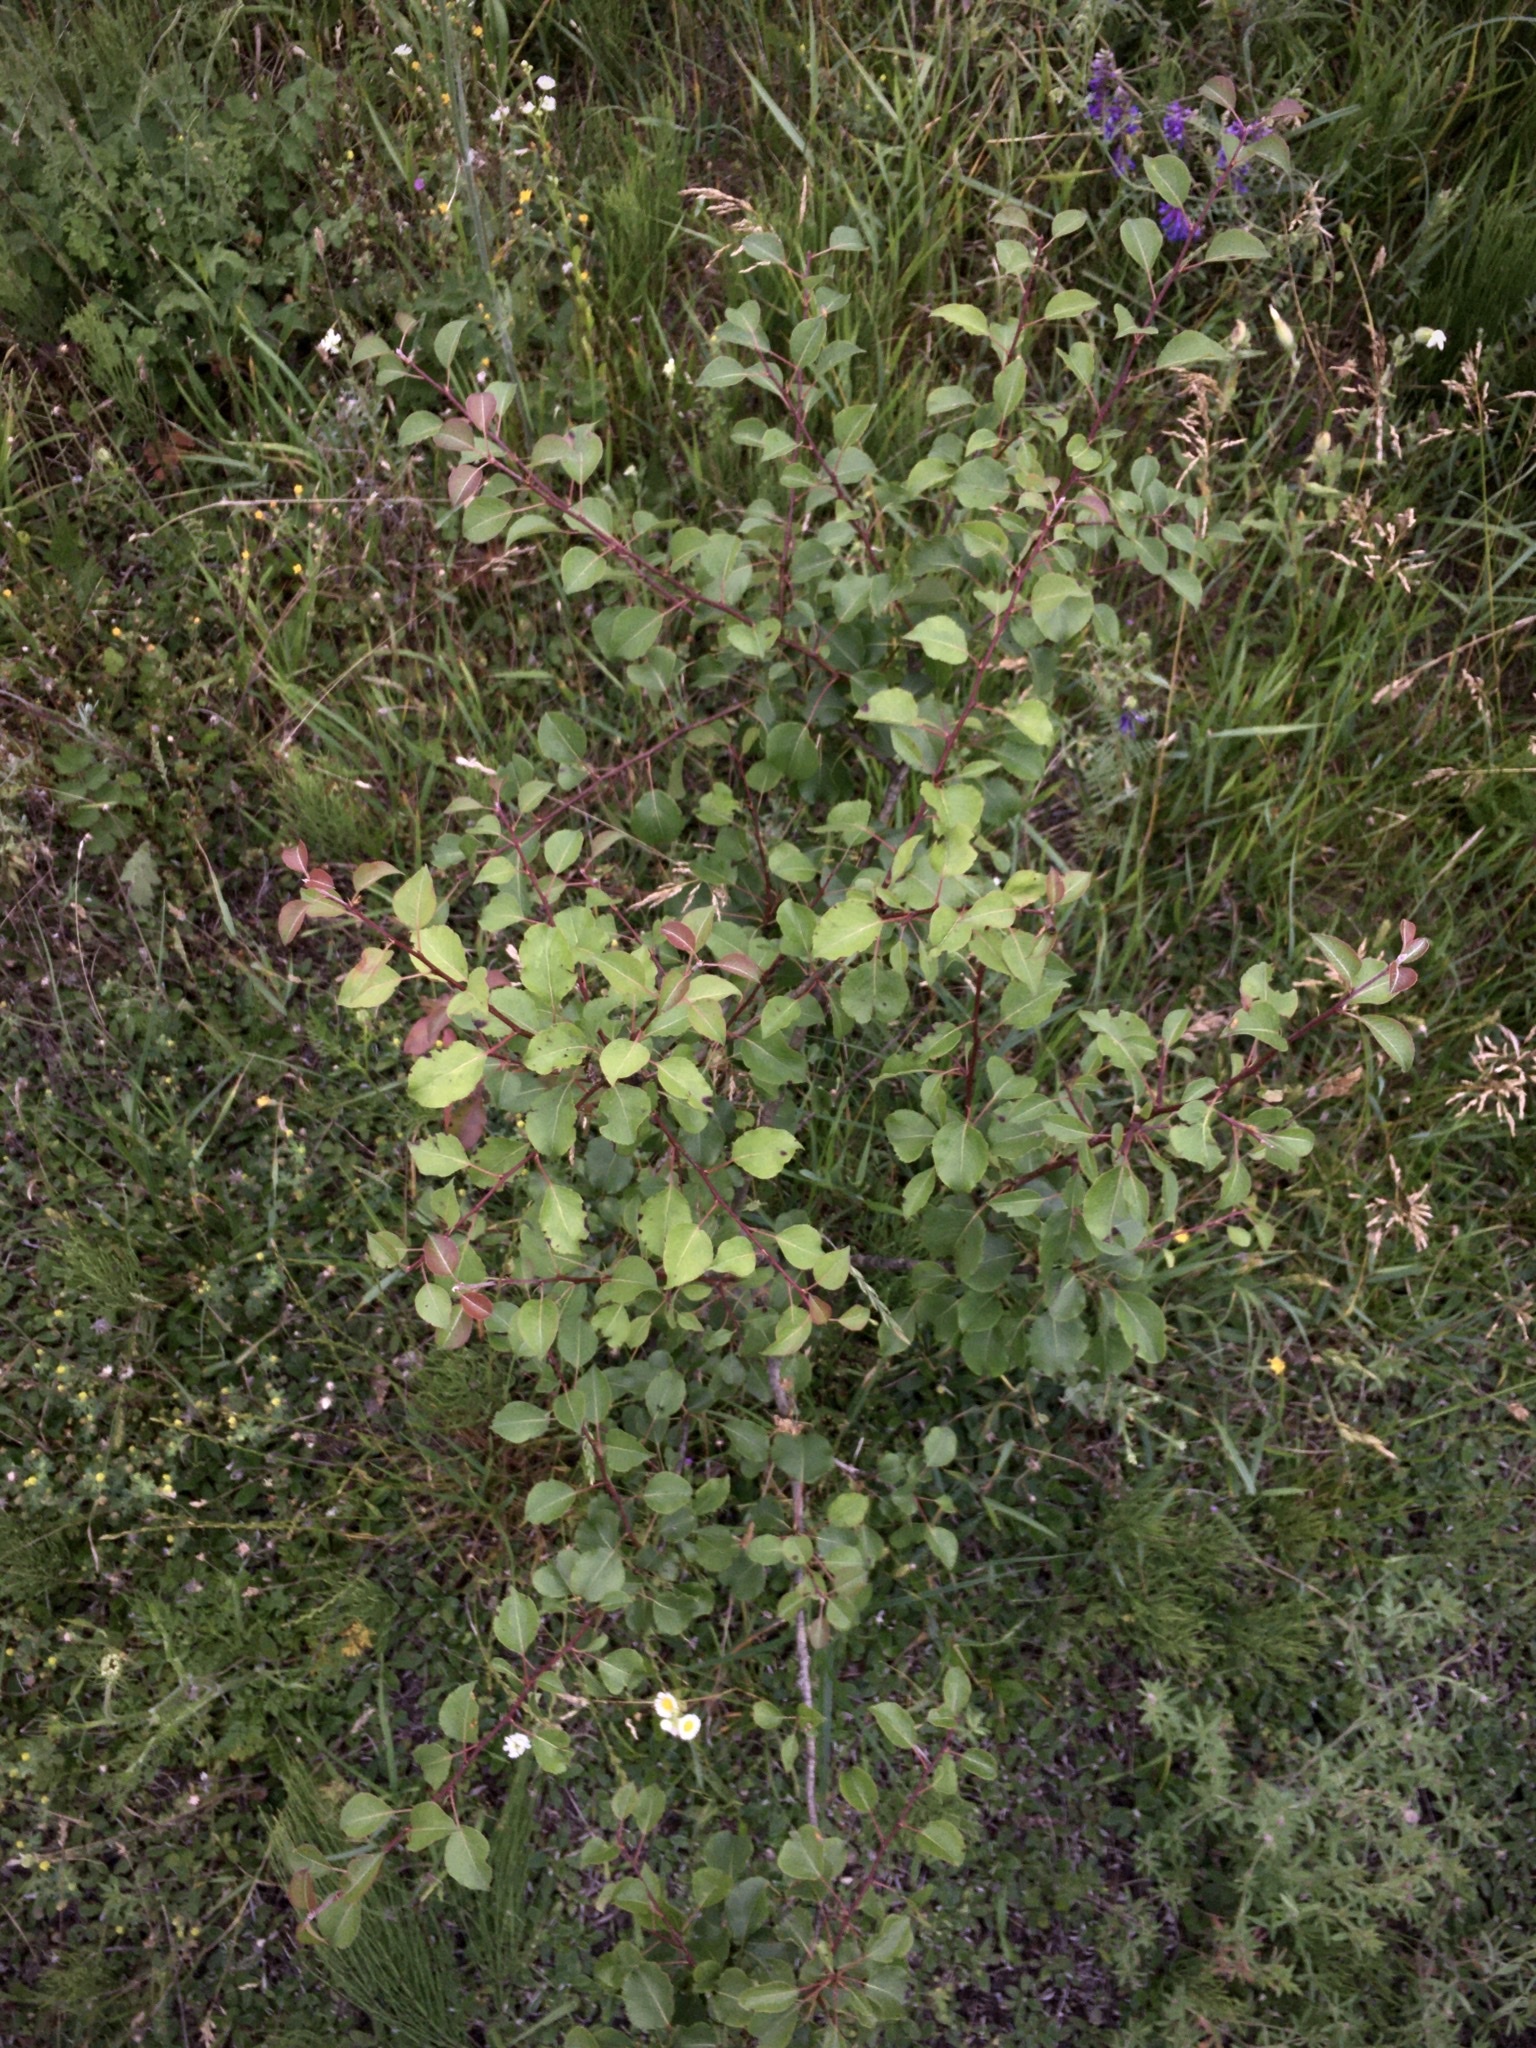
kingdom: Plantae
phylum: Tracheophyta
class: Magnoliopsida
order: Rosales
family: Rosaceae
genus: Pyrus
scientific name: Pyrus communis
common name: Pear
